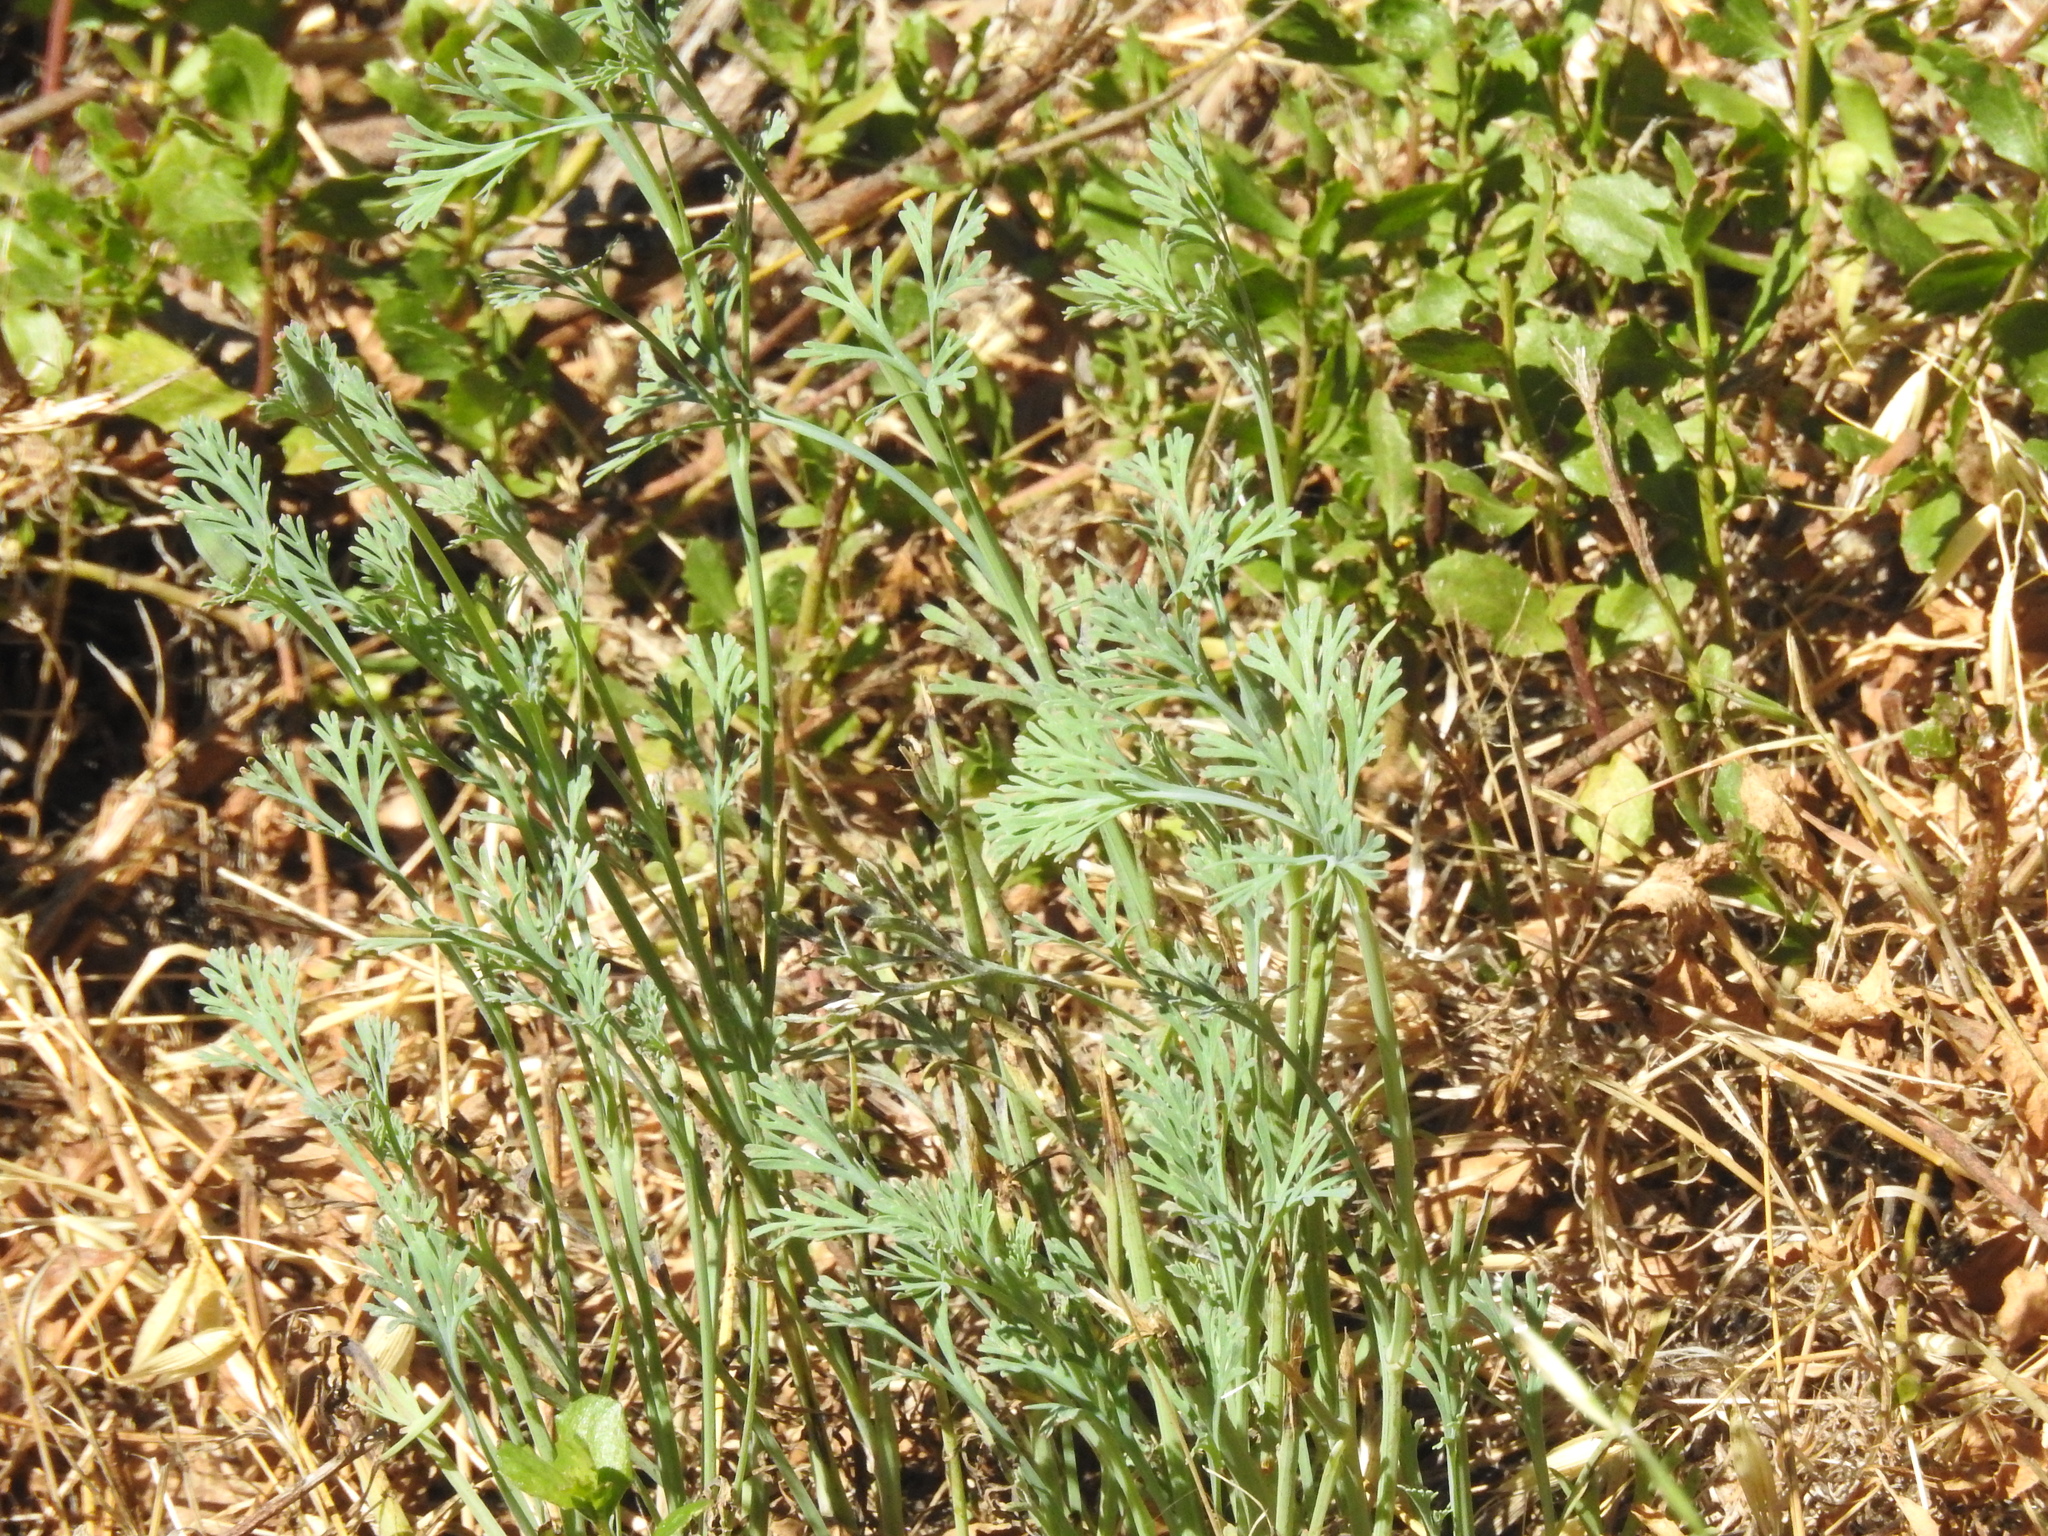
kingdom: Plantae
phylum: Tracheophyta
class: Magnoliopsida
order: Ranunculales
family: Papaveraceae
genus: Eschscholzia
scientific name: Eschscholzia californica
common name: California poppy
